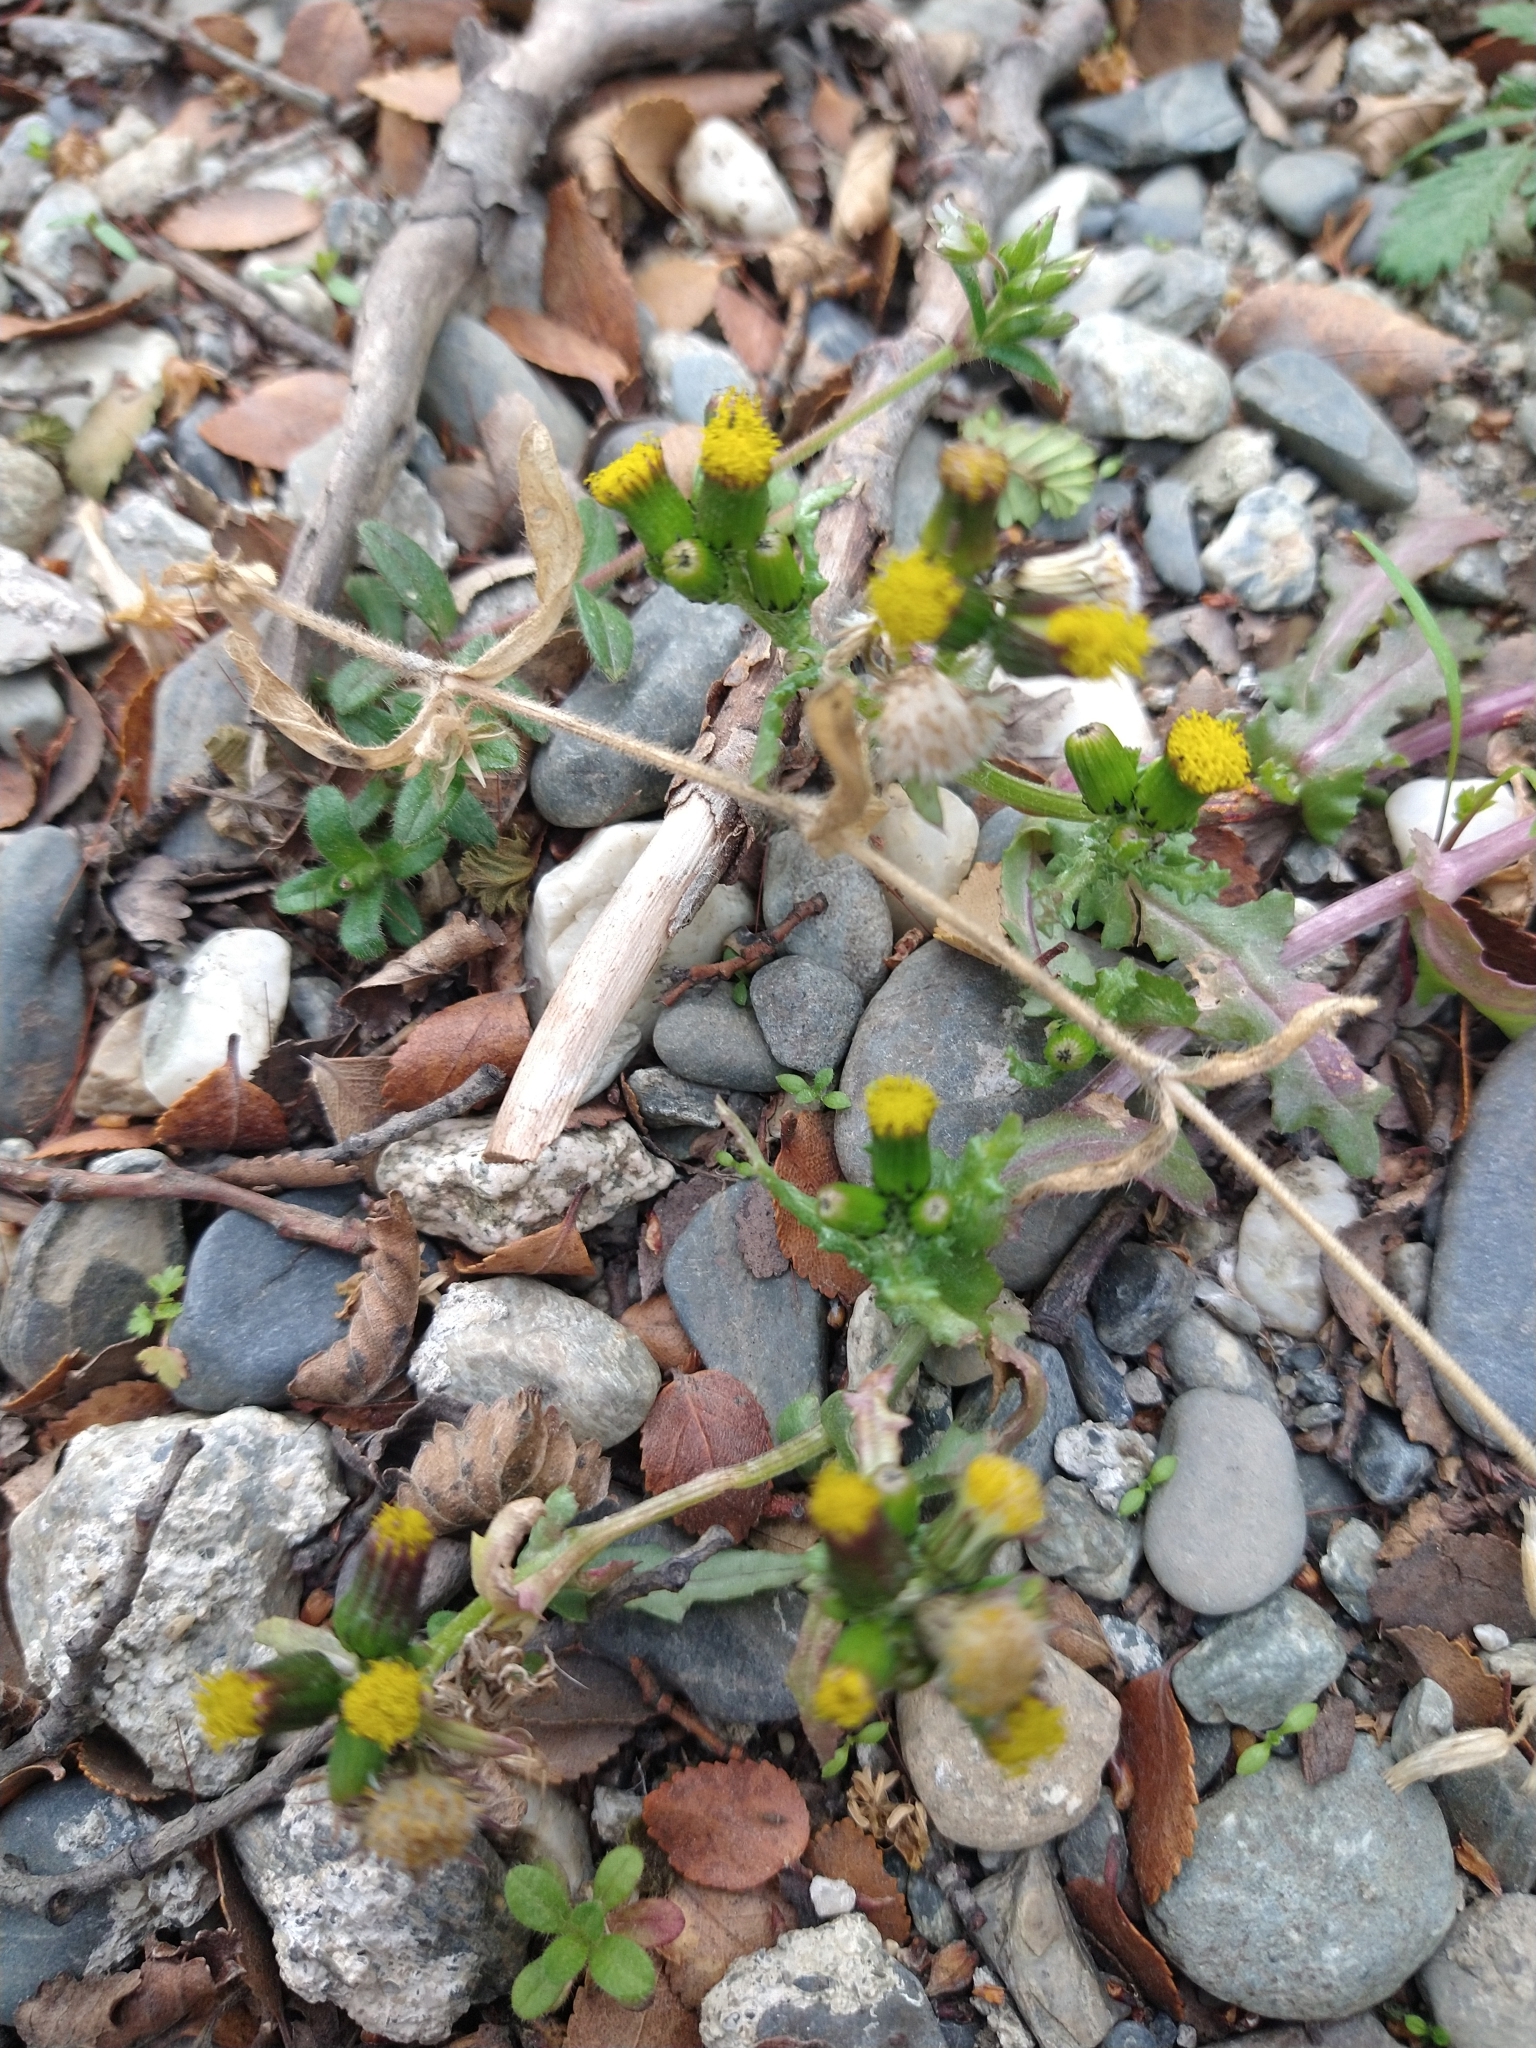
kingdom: Plantae
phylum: Tracheophyta
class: Magnoliopsida
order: Asterales
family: Asteraceae
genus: Senecio
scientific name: Senecio vulgaris
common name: Old-man-in-the-spring
